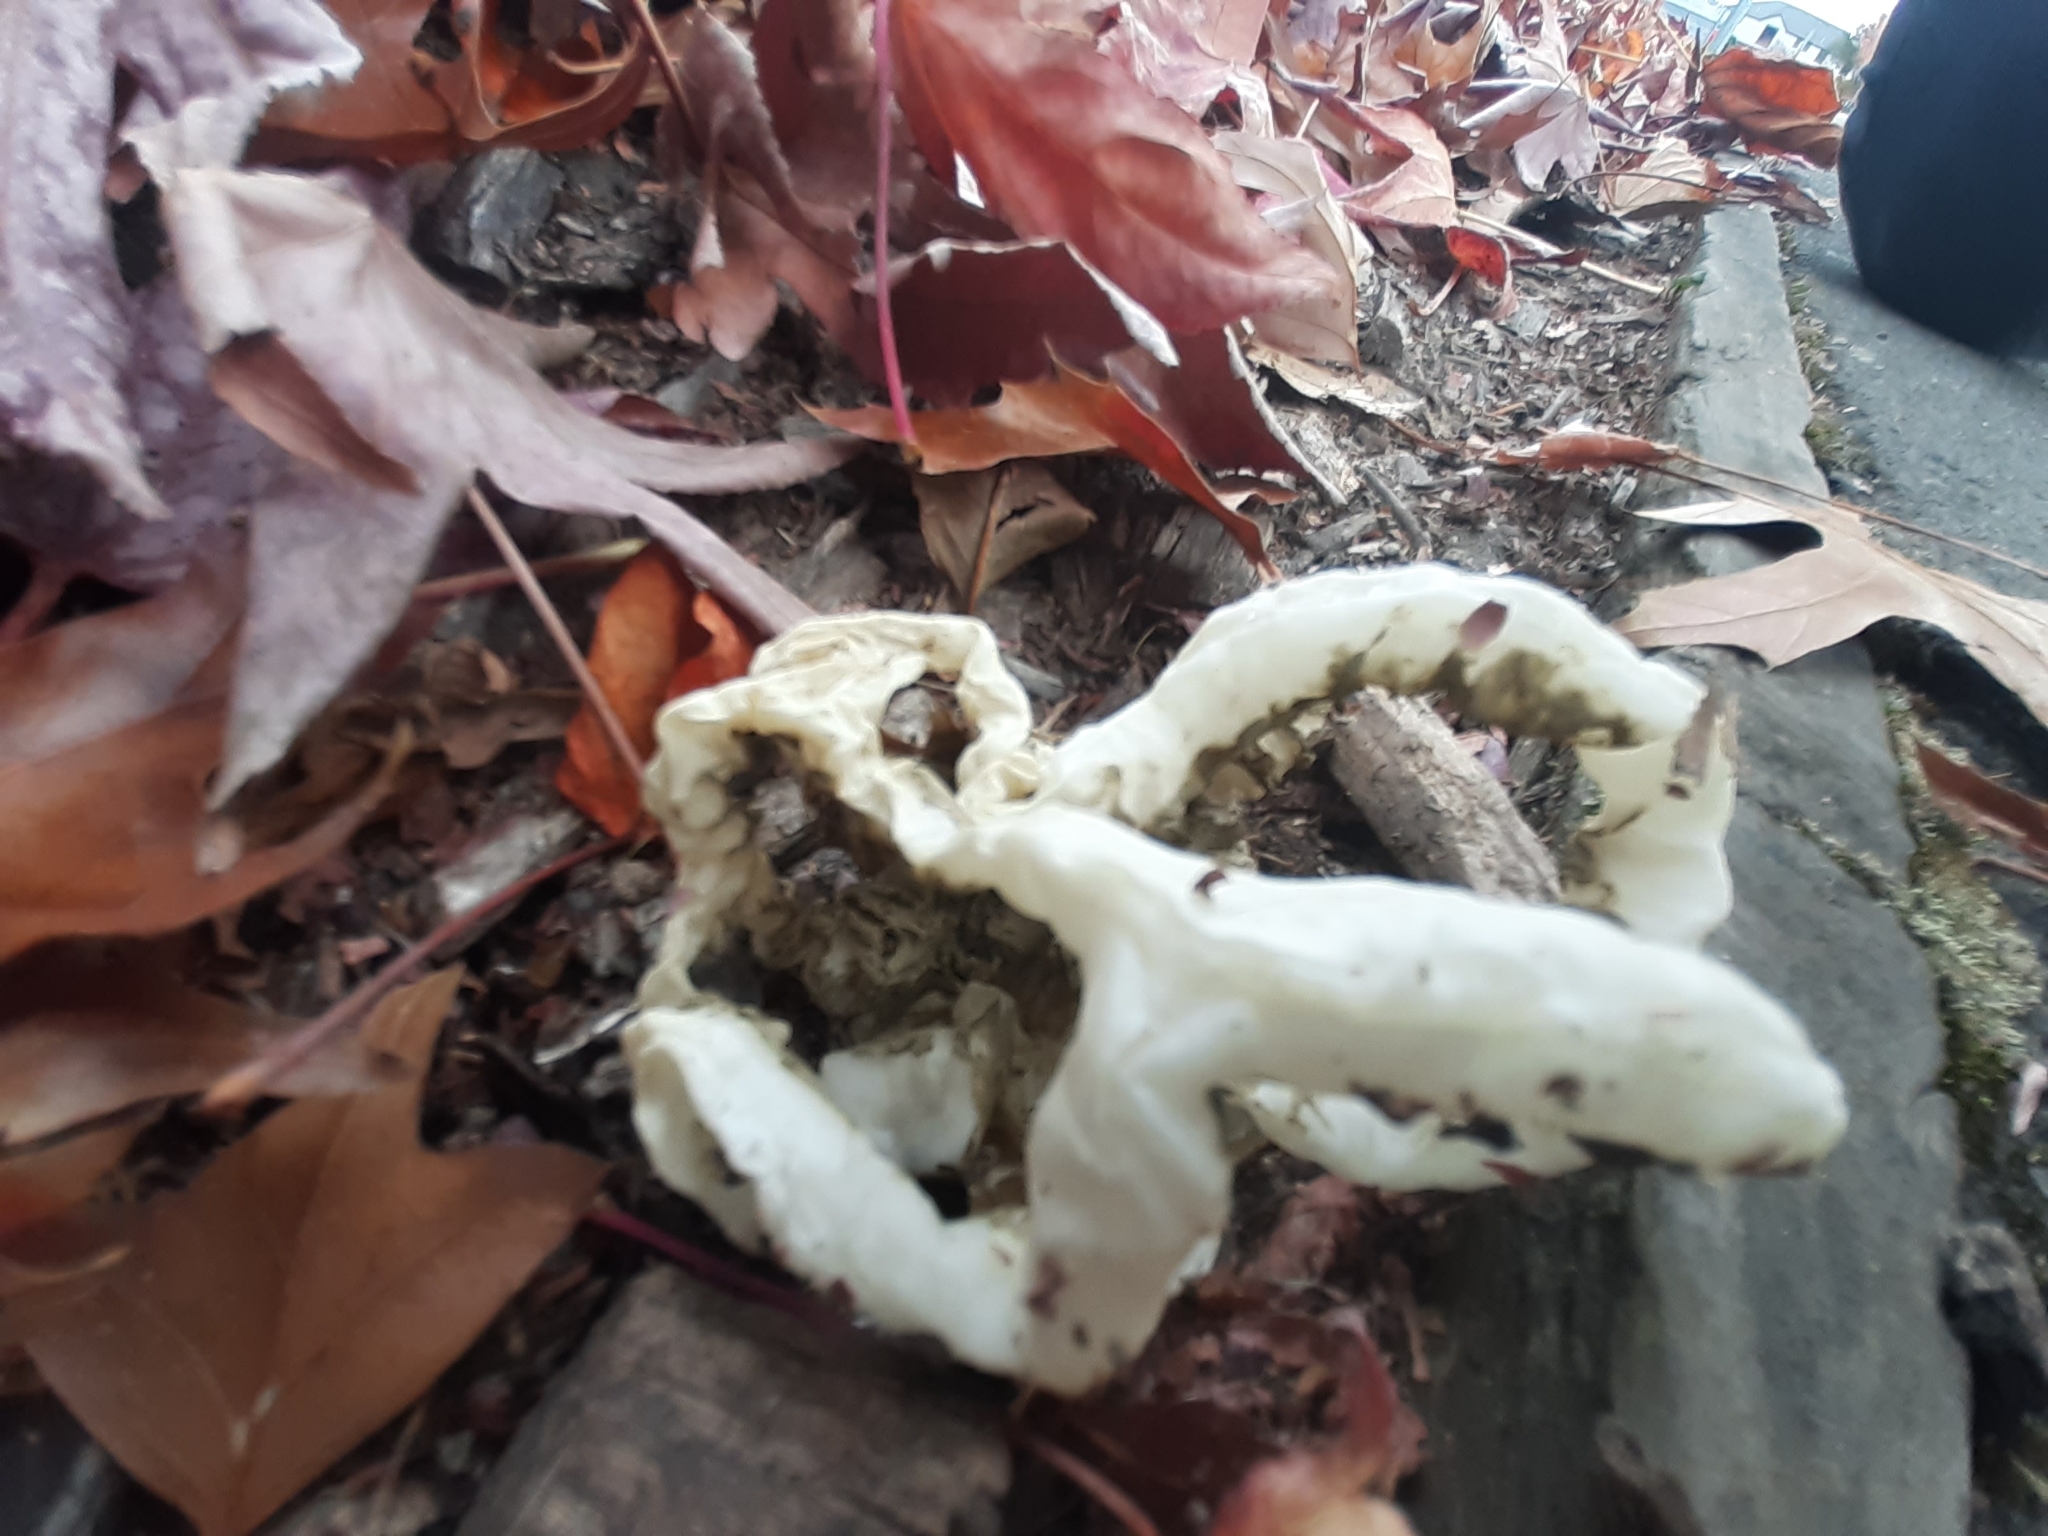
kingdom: Fungi
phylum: Basidiomycota
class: Agaricomycetes
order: Phallales
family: Phallaceae
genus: Ileodictyon
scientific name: Ileodictyon cibarium
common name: Basket fungus
